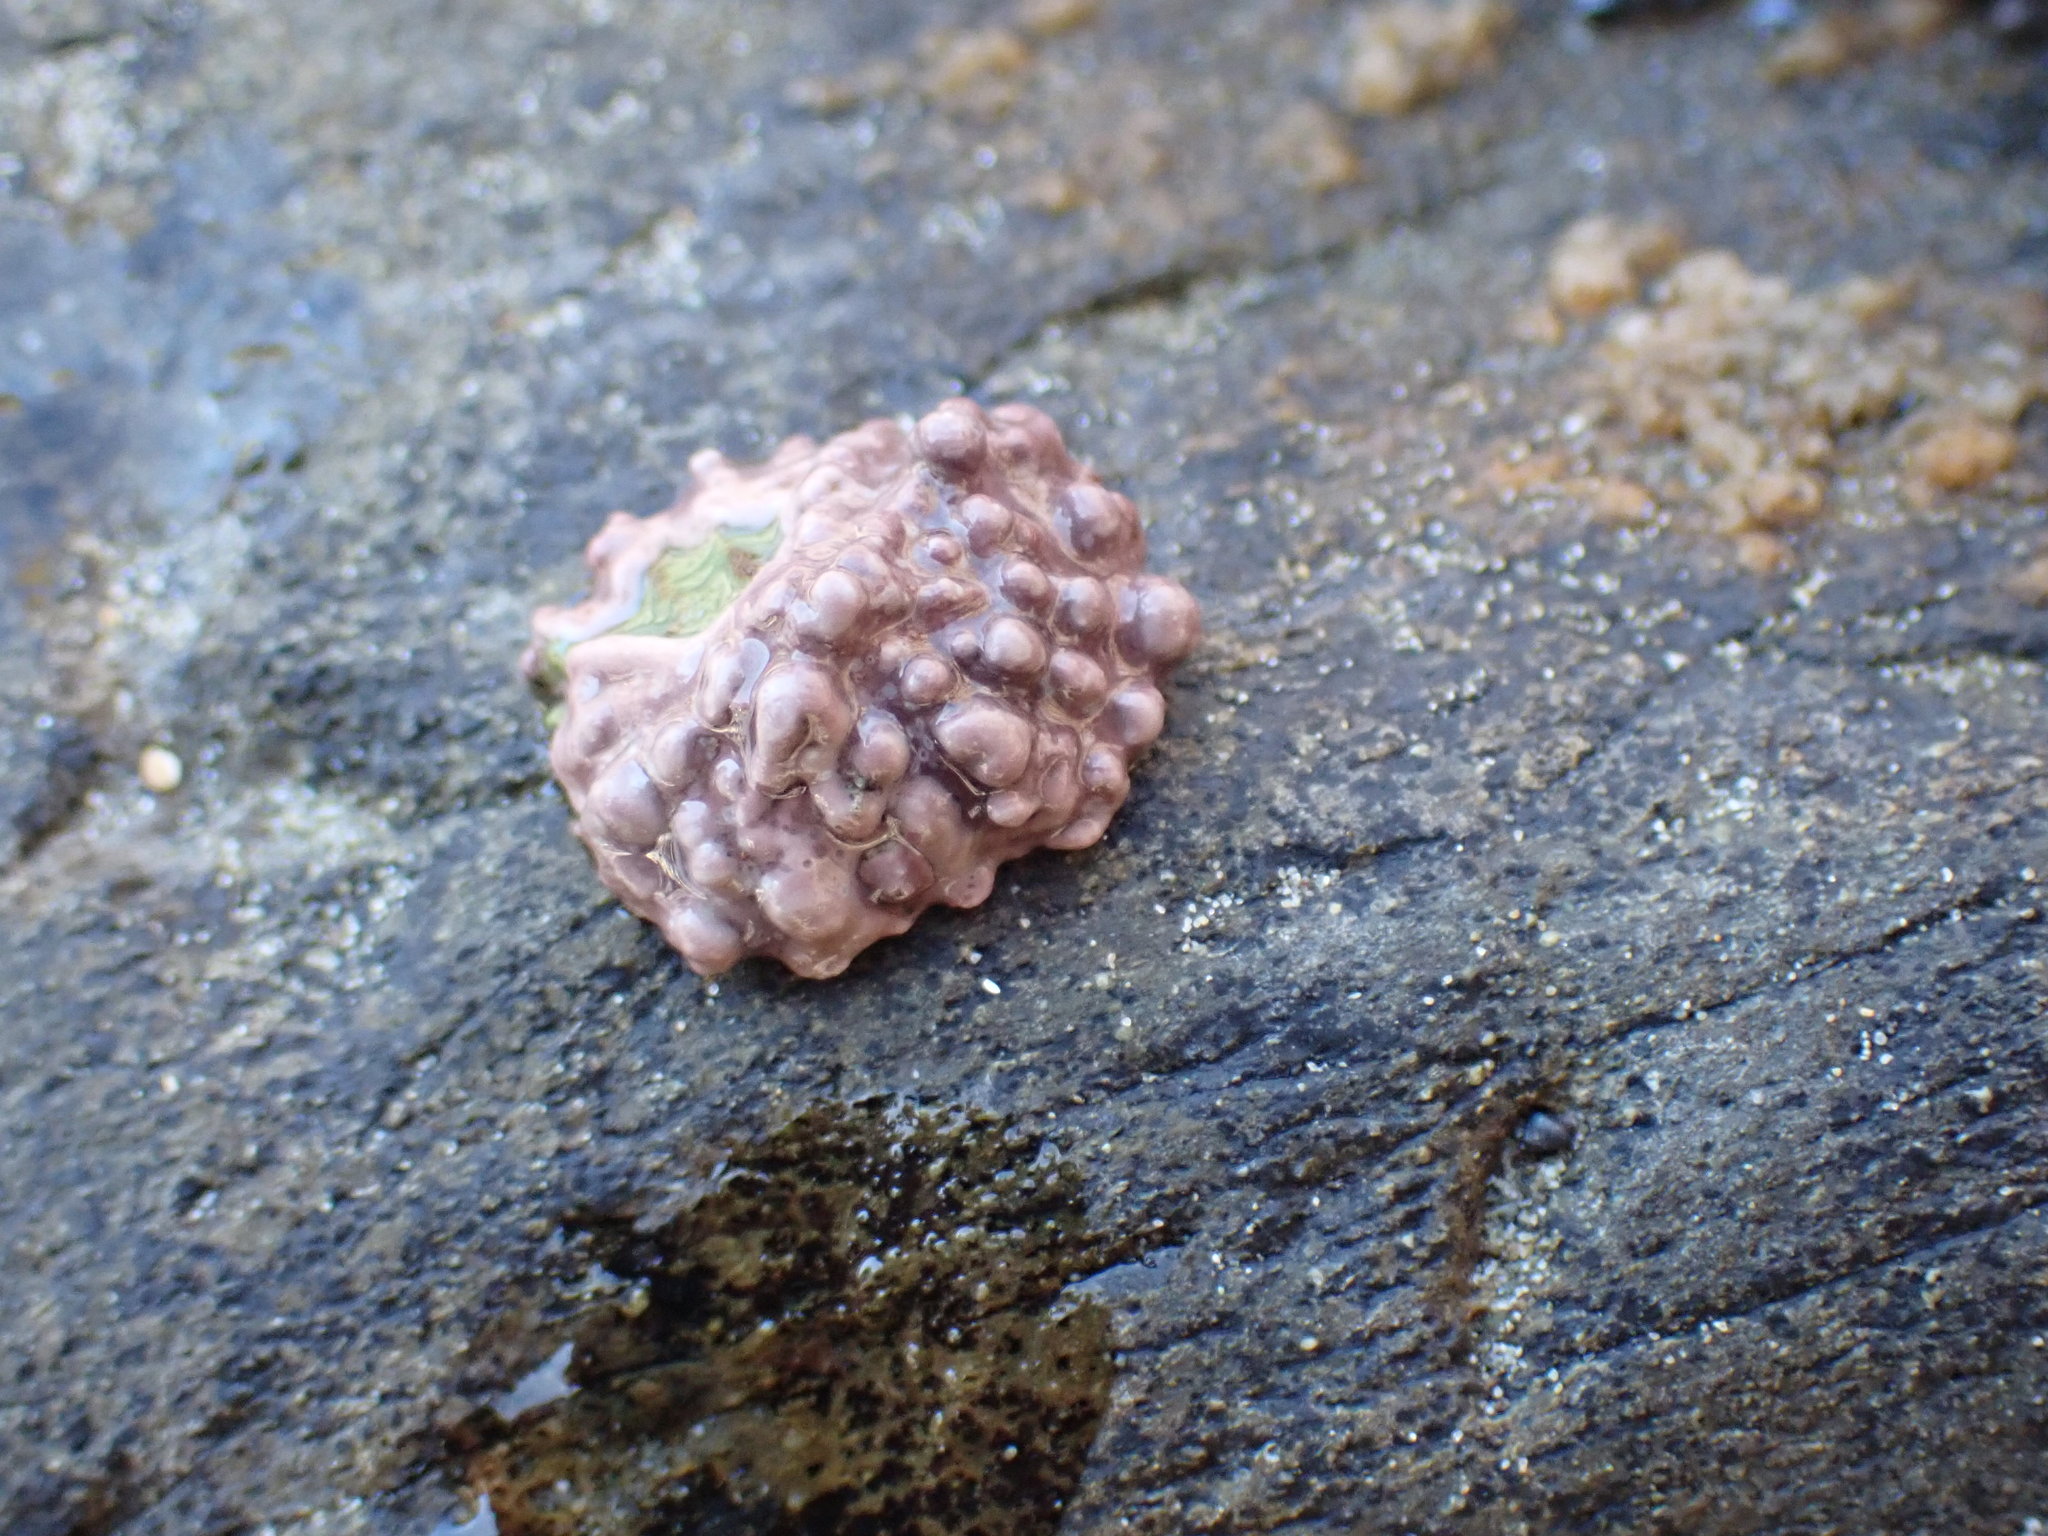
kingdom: Animalia
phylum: Mollusca
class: Gastropoda
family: Lottiidae
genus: Patelloida
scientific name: Patelloida corticata
